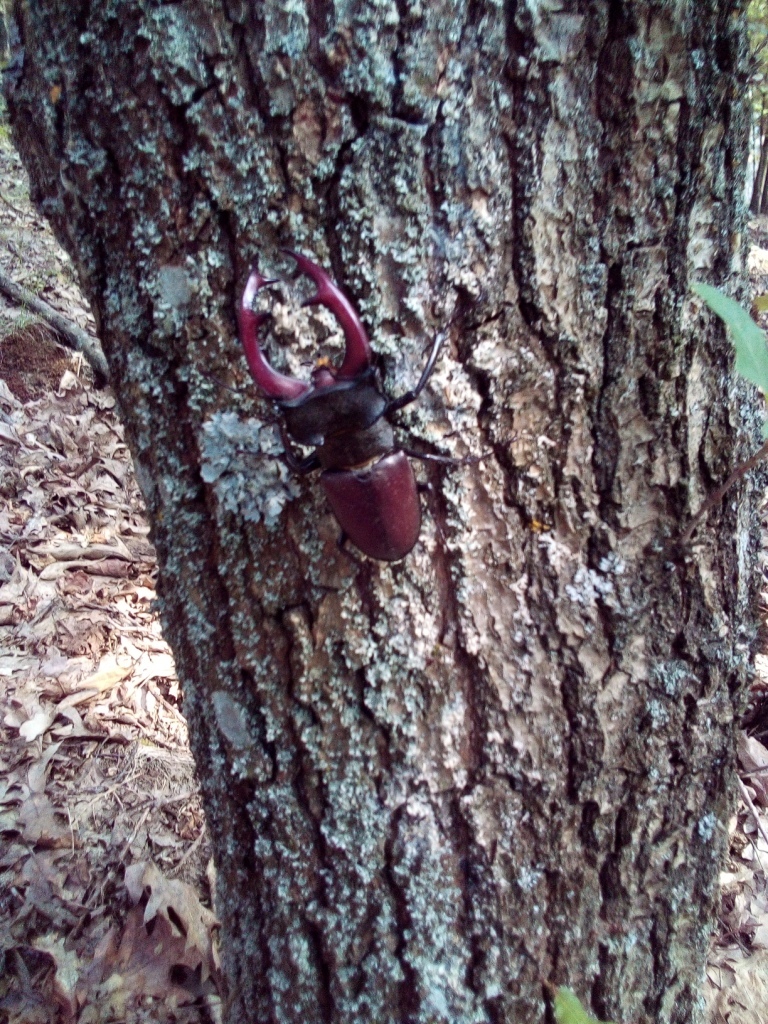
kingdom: Animalia
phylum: Arthropoda
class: Insecta
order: Coleoptera
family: Lucanidae
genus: Lucanus
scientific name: Lucanus cervus
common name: Stag beetle
